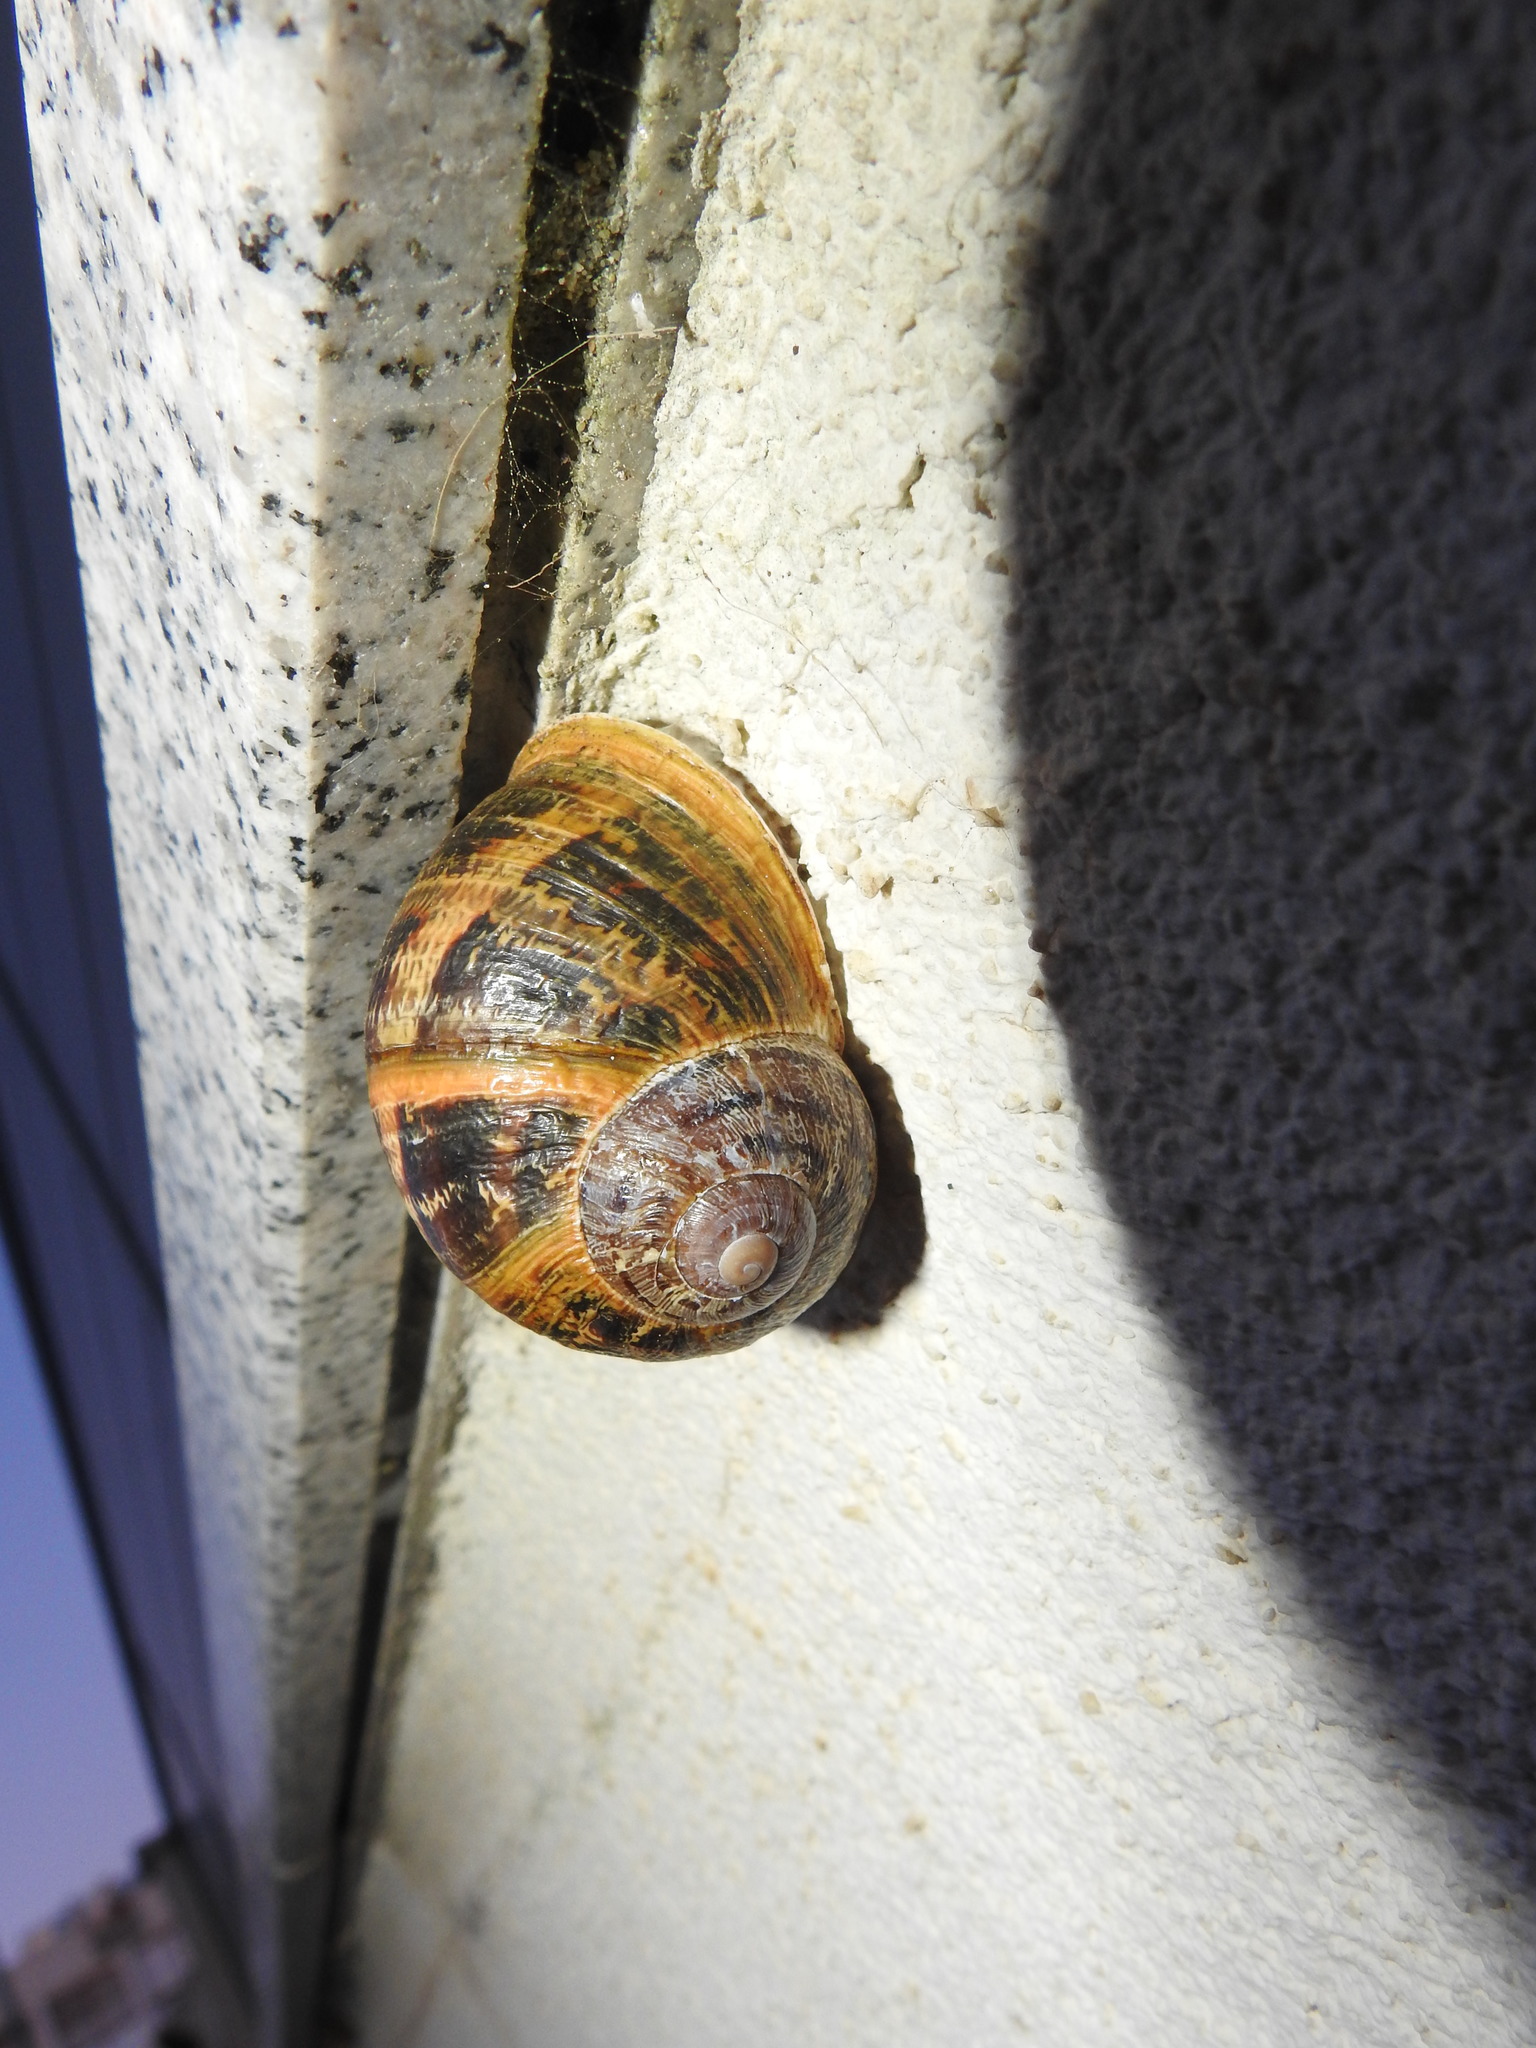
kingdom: Animalia
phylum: Mollusca
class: Gastropoda
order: Stylommatophora
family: Helicidae
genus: Cornu
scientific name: Cornu aspersum
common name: Brown garden snail
